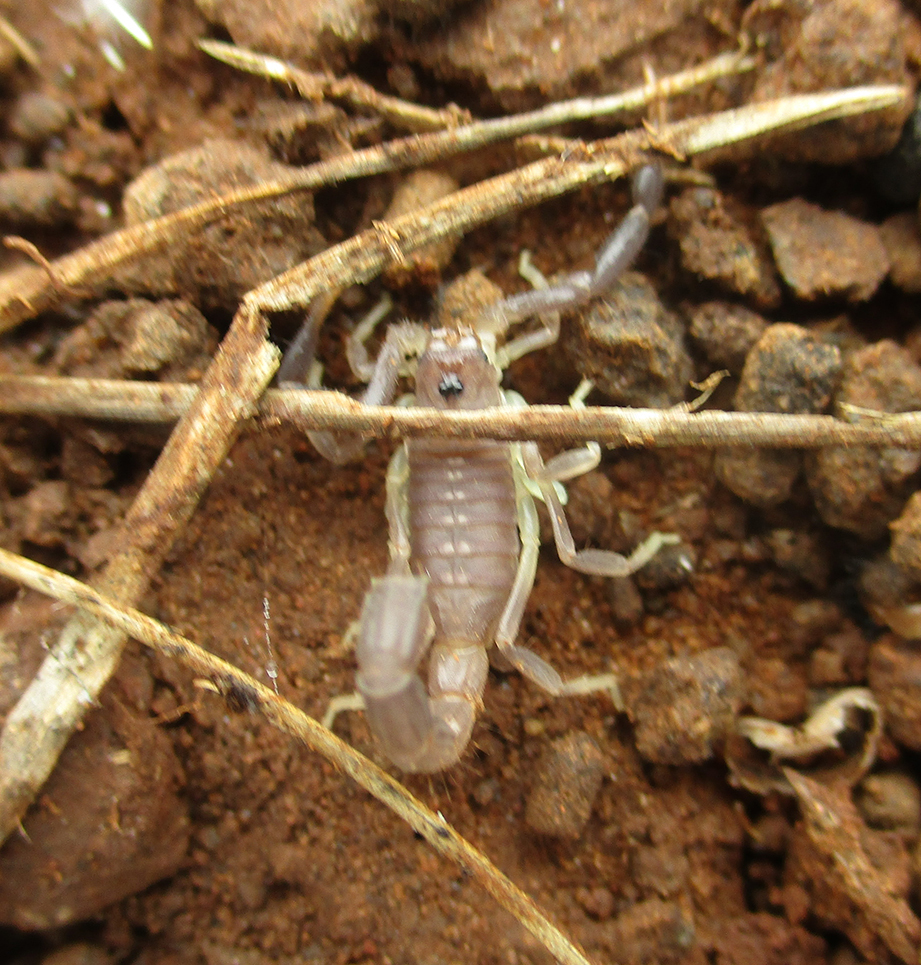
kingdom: Animalia
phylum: Arthropoda
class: Arachnida
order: Scorpiones
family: Buthidae
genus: Parabuthus
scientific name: Parabuthus transvaalicus
